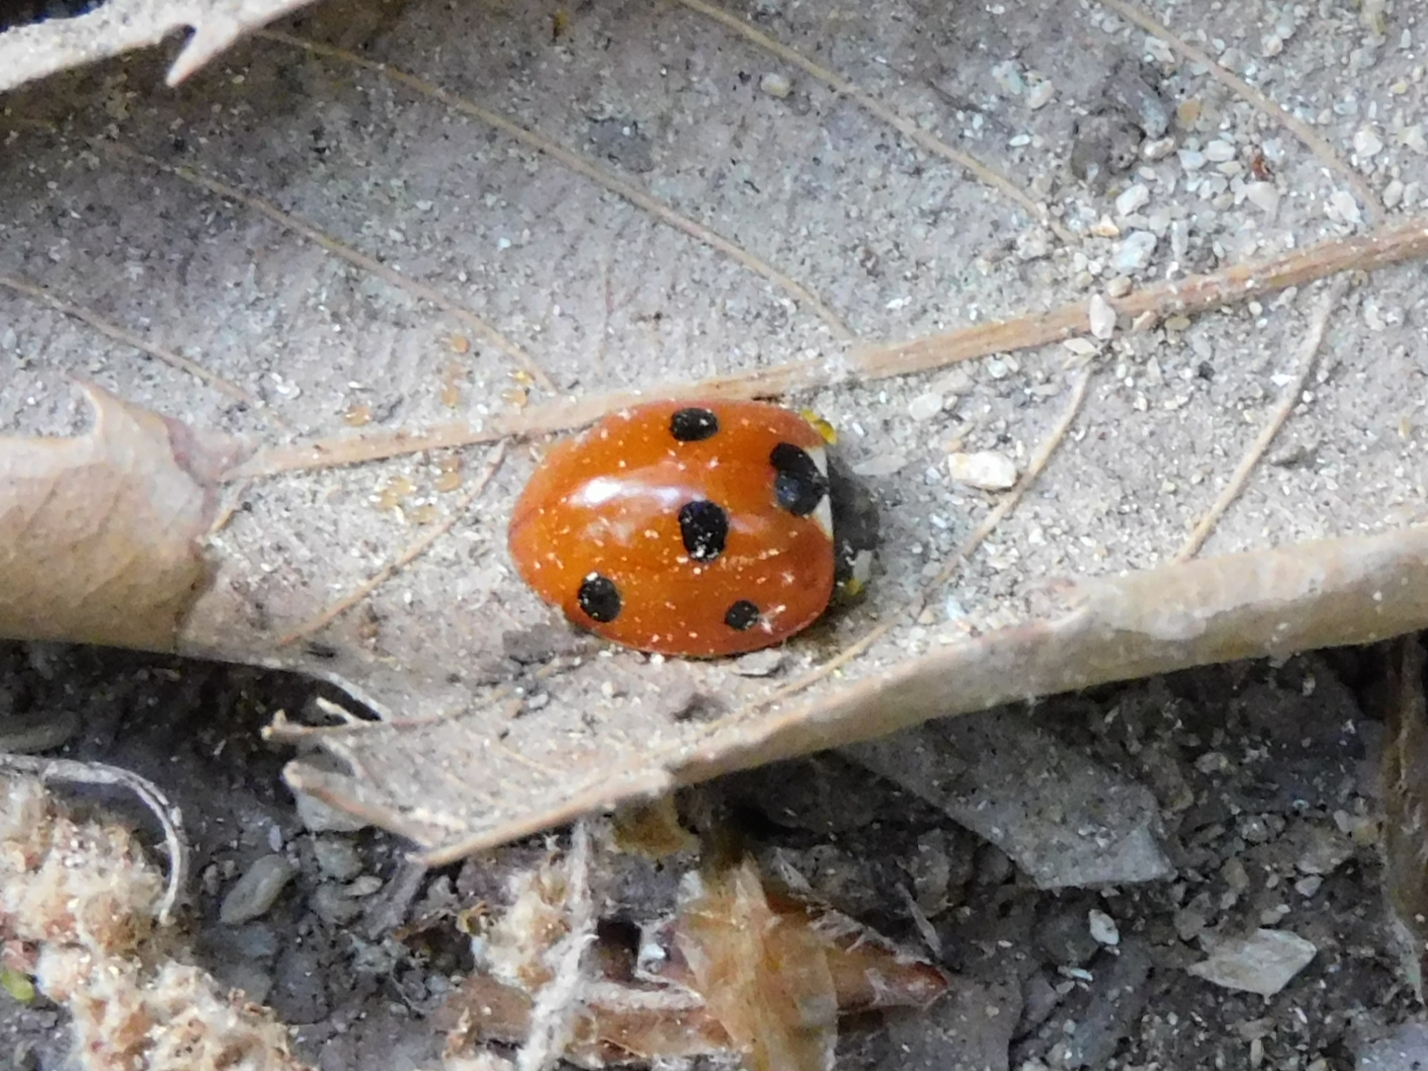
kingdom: Animalia
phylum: Arthropoda
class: Insecta
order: Coleoptera
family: Coccinellidae
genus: Coccinella
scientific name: Coccinella septempunctata
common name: Sevenspotted lady beetle
